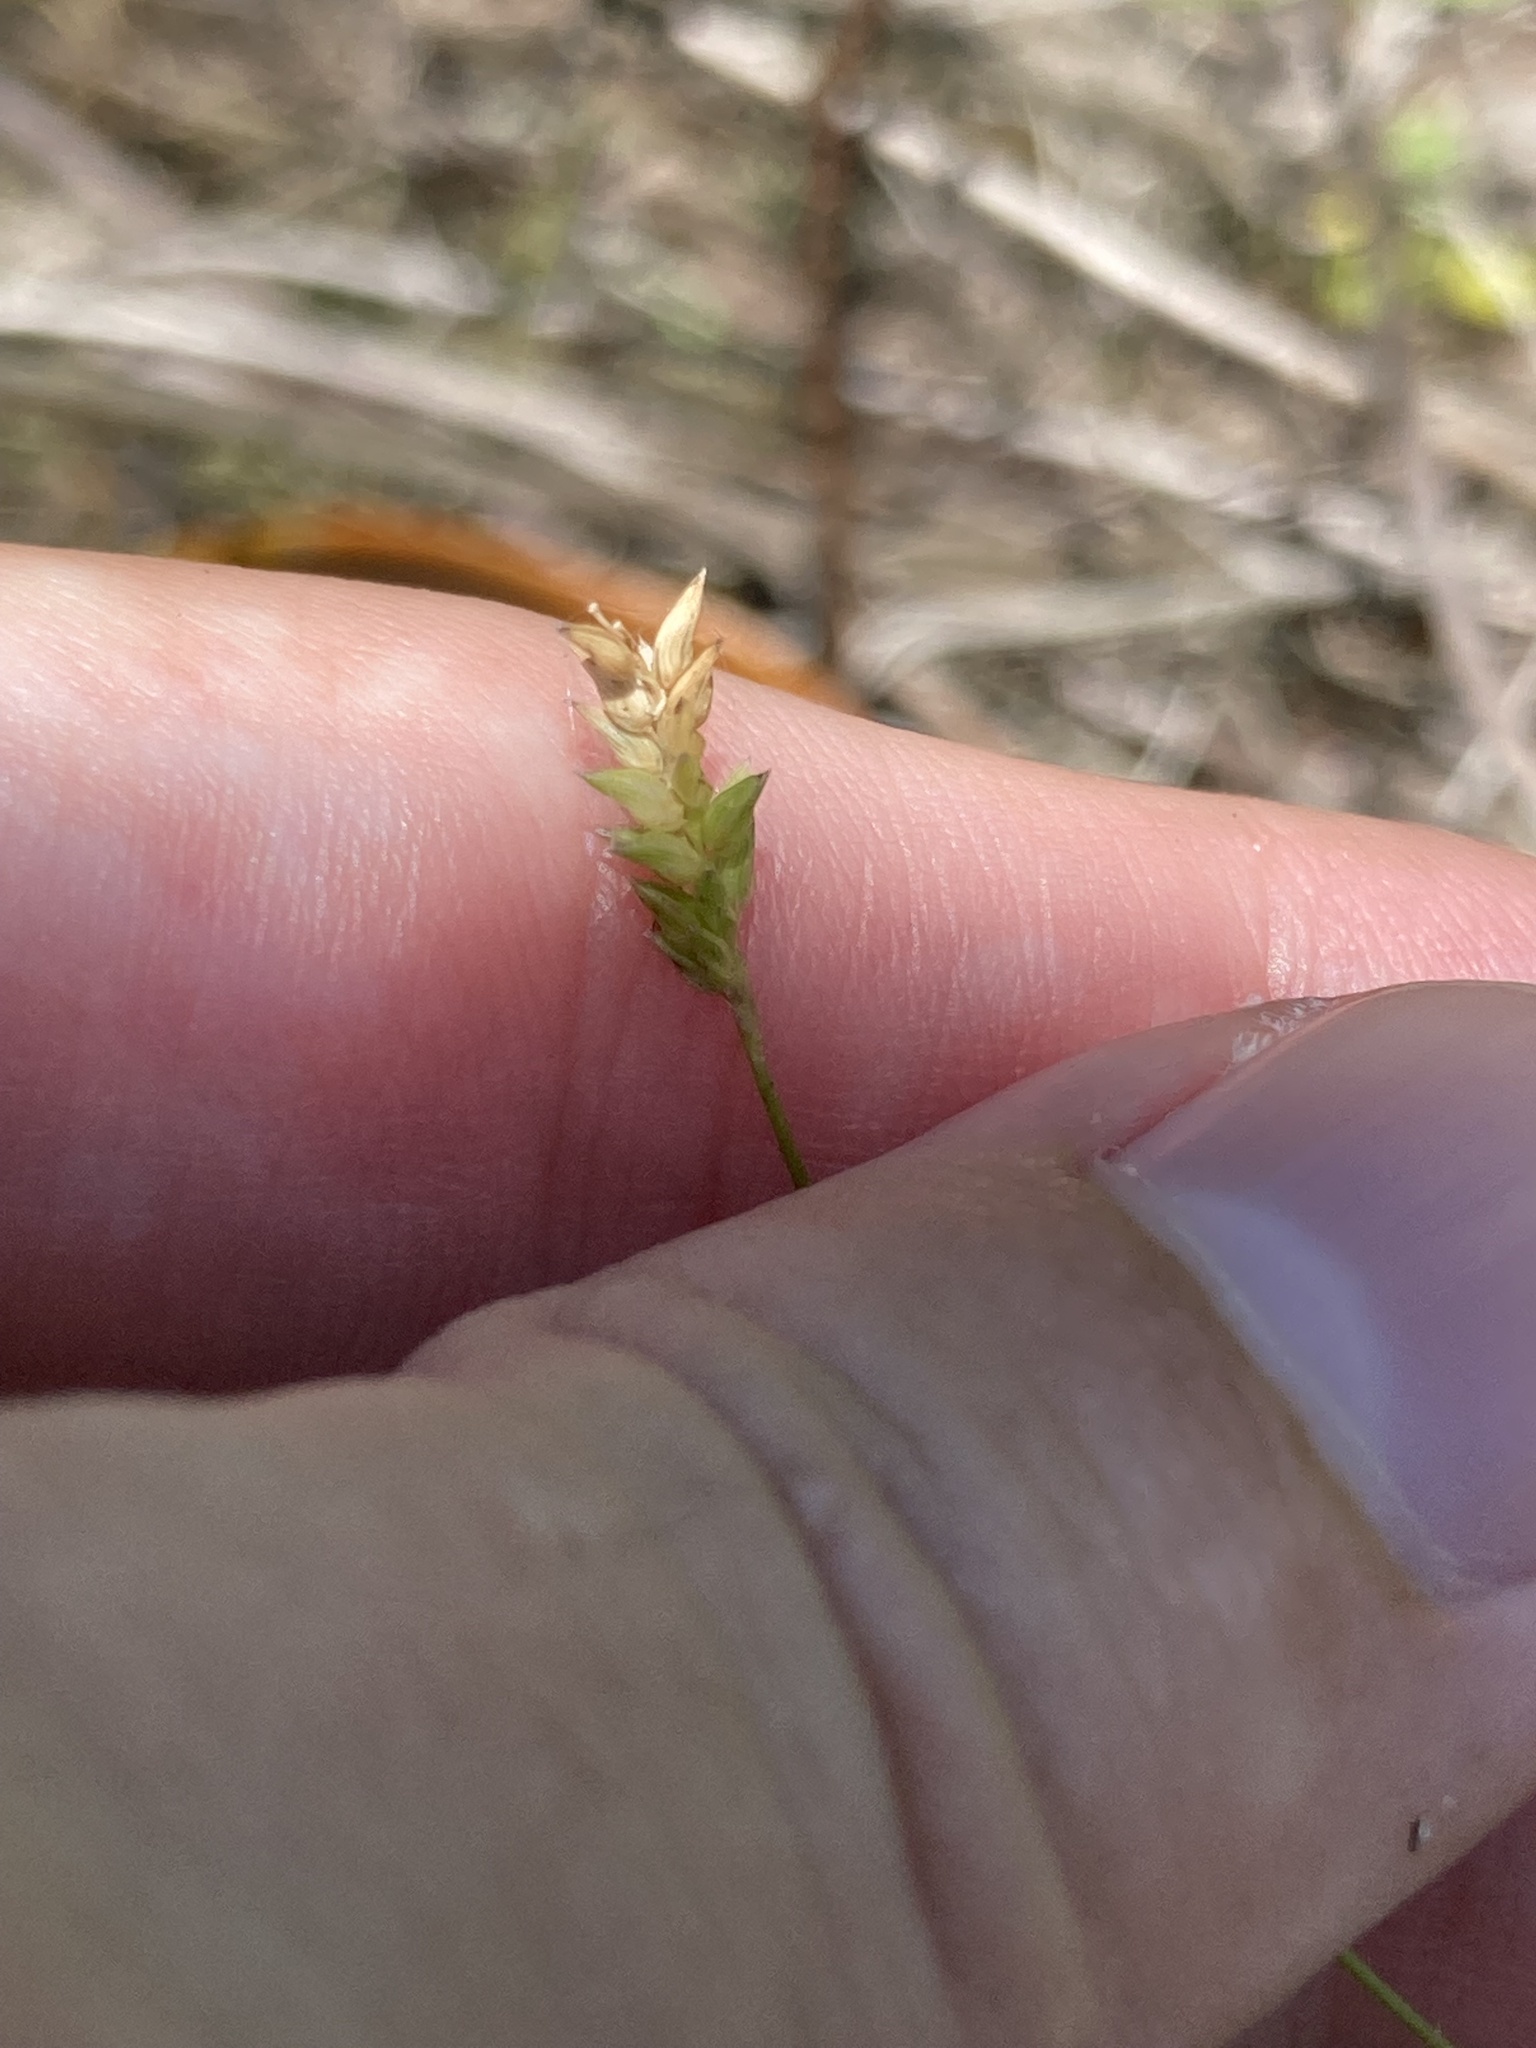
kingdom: Plantae
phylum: Tracheophyta
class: Liliopsida
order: Poales
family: Poaceae
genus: Sacciolepis
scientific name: Sacciolepis indica
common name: Glenwoodgrass
